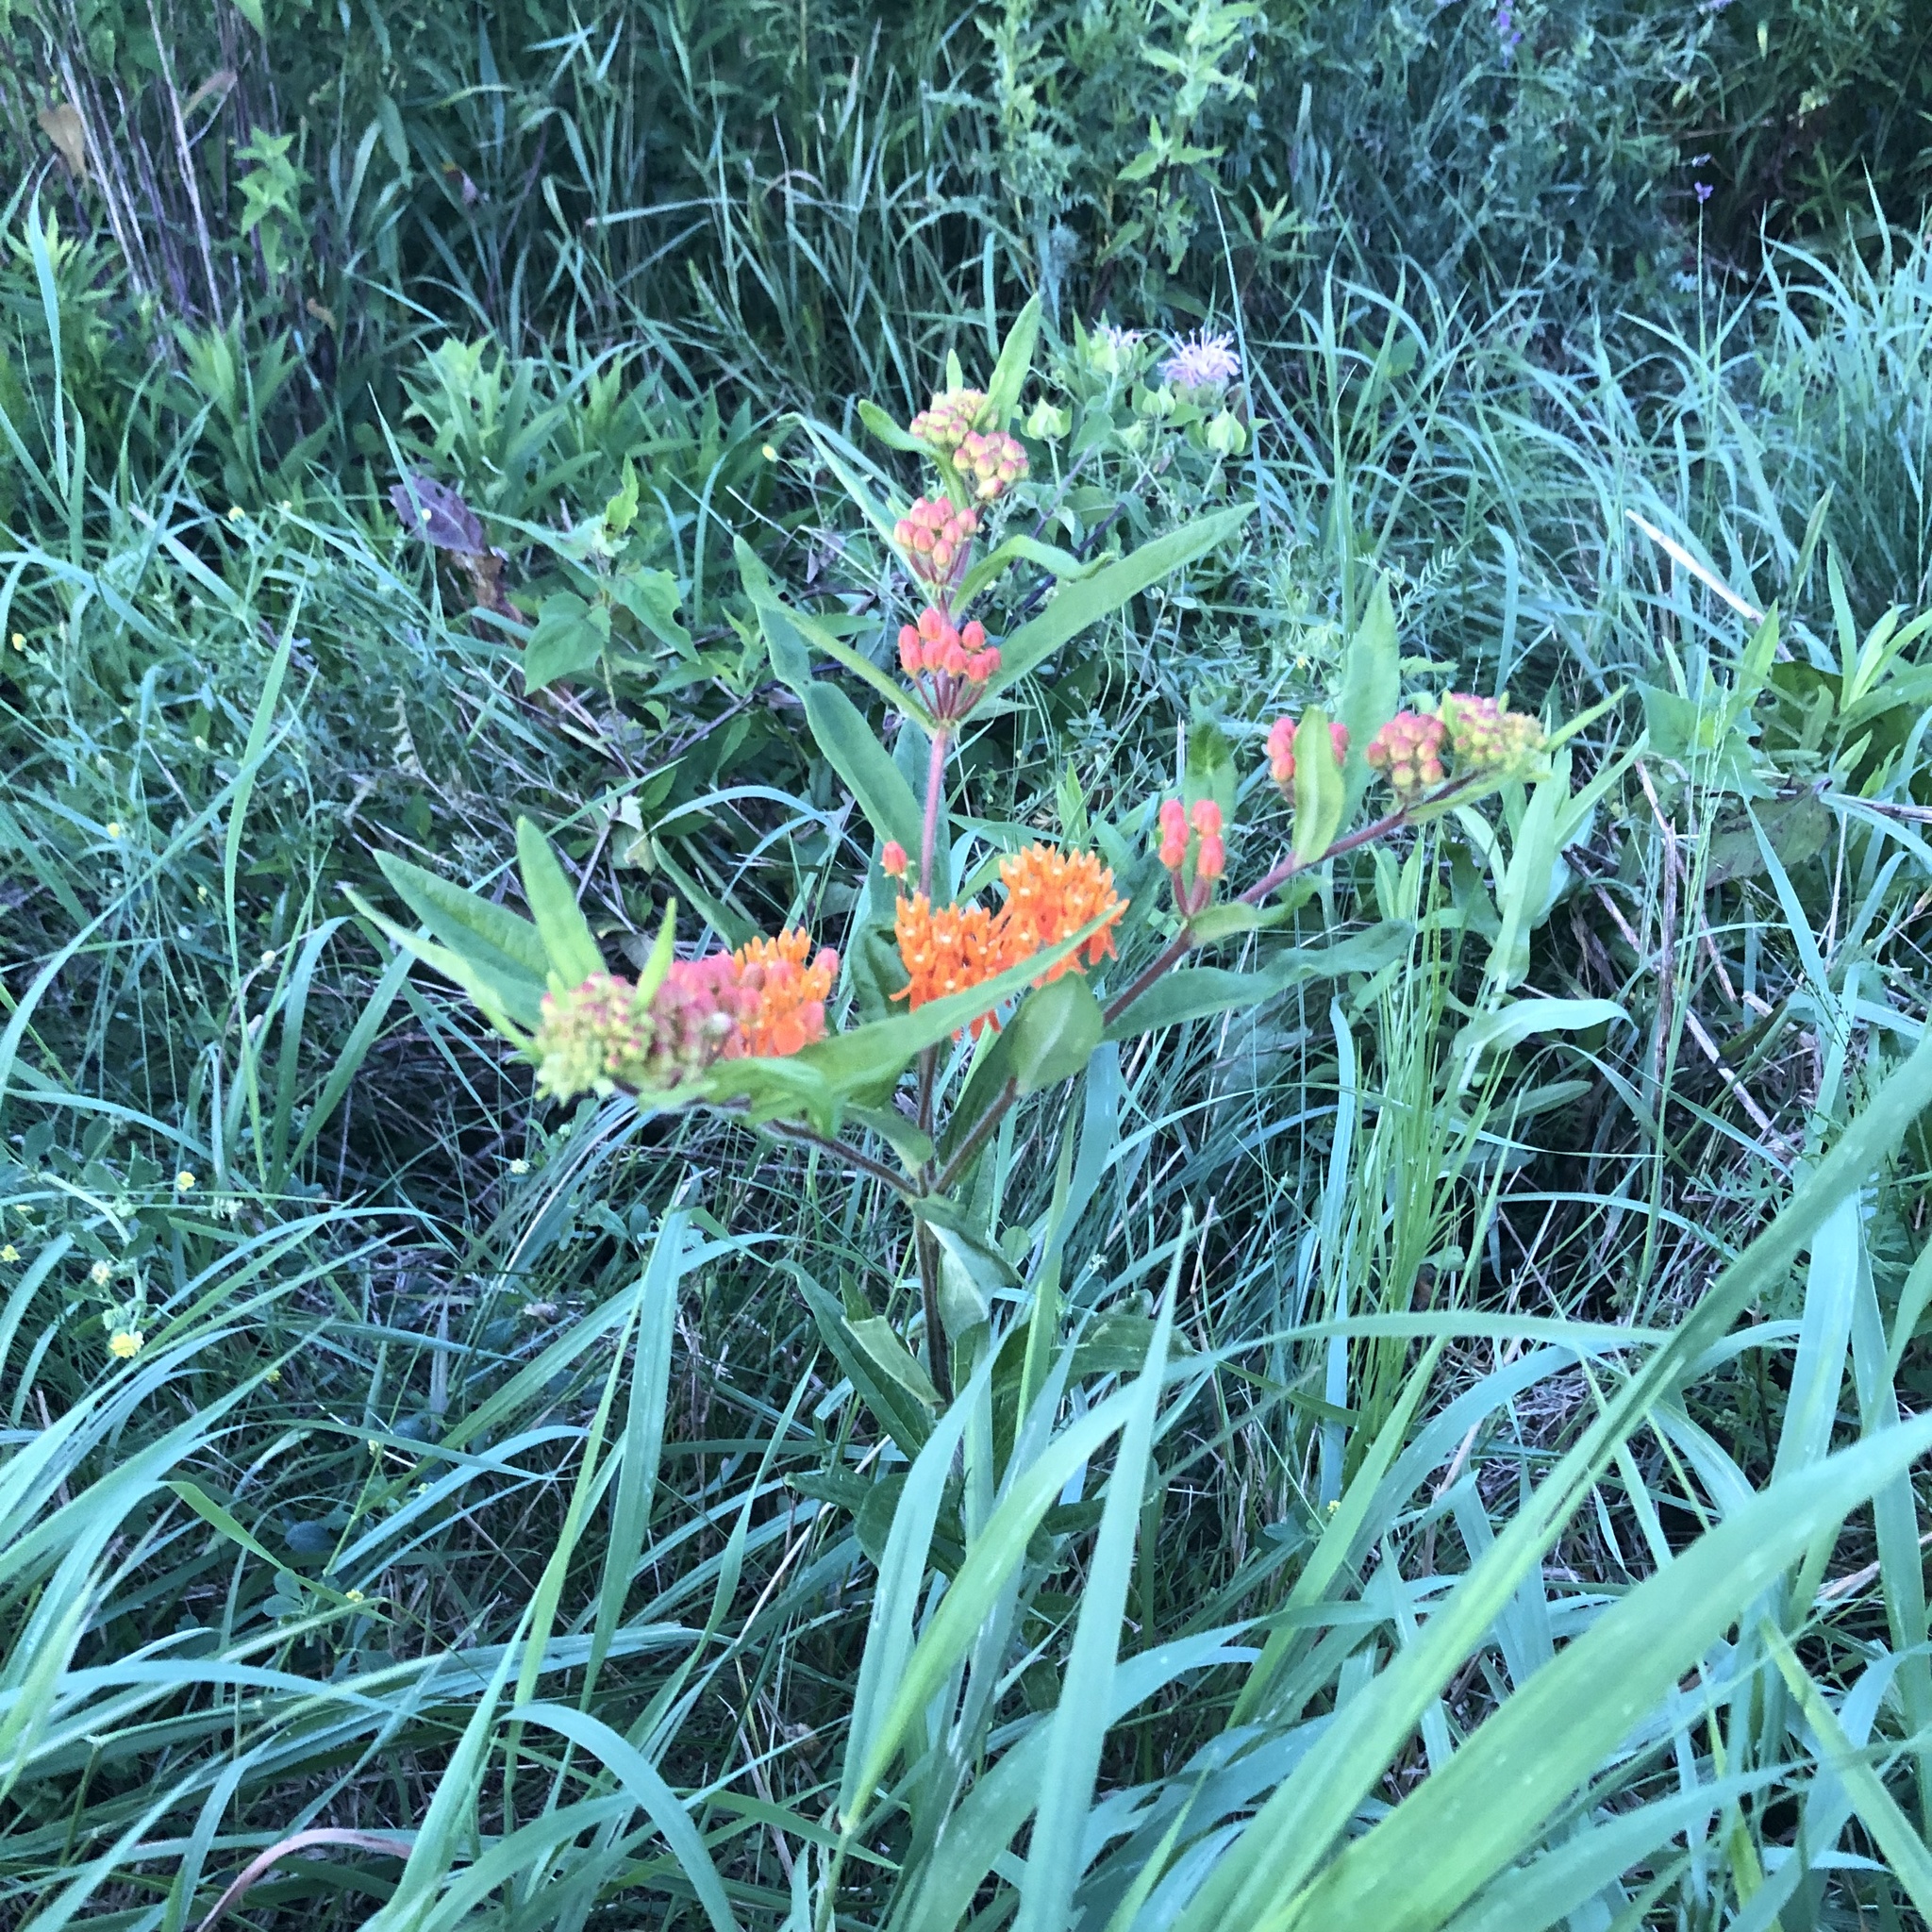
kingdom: Plantae
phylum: Tracheophyta
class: Magnoliopsida
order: Gentianales
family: Apocynaceae
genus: Asclepias
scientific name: Asclepias tuberosa
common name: Butterfly milkweed
